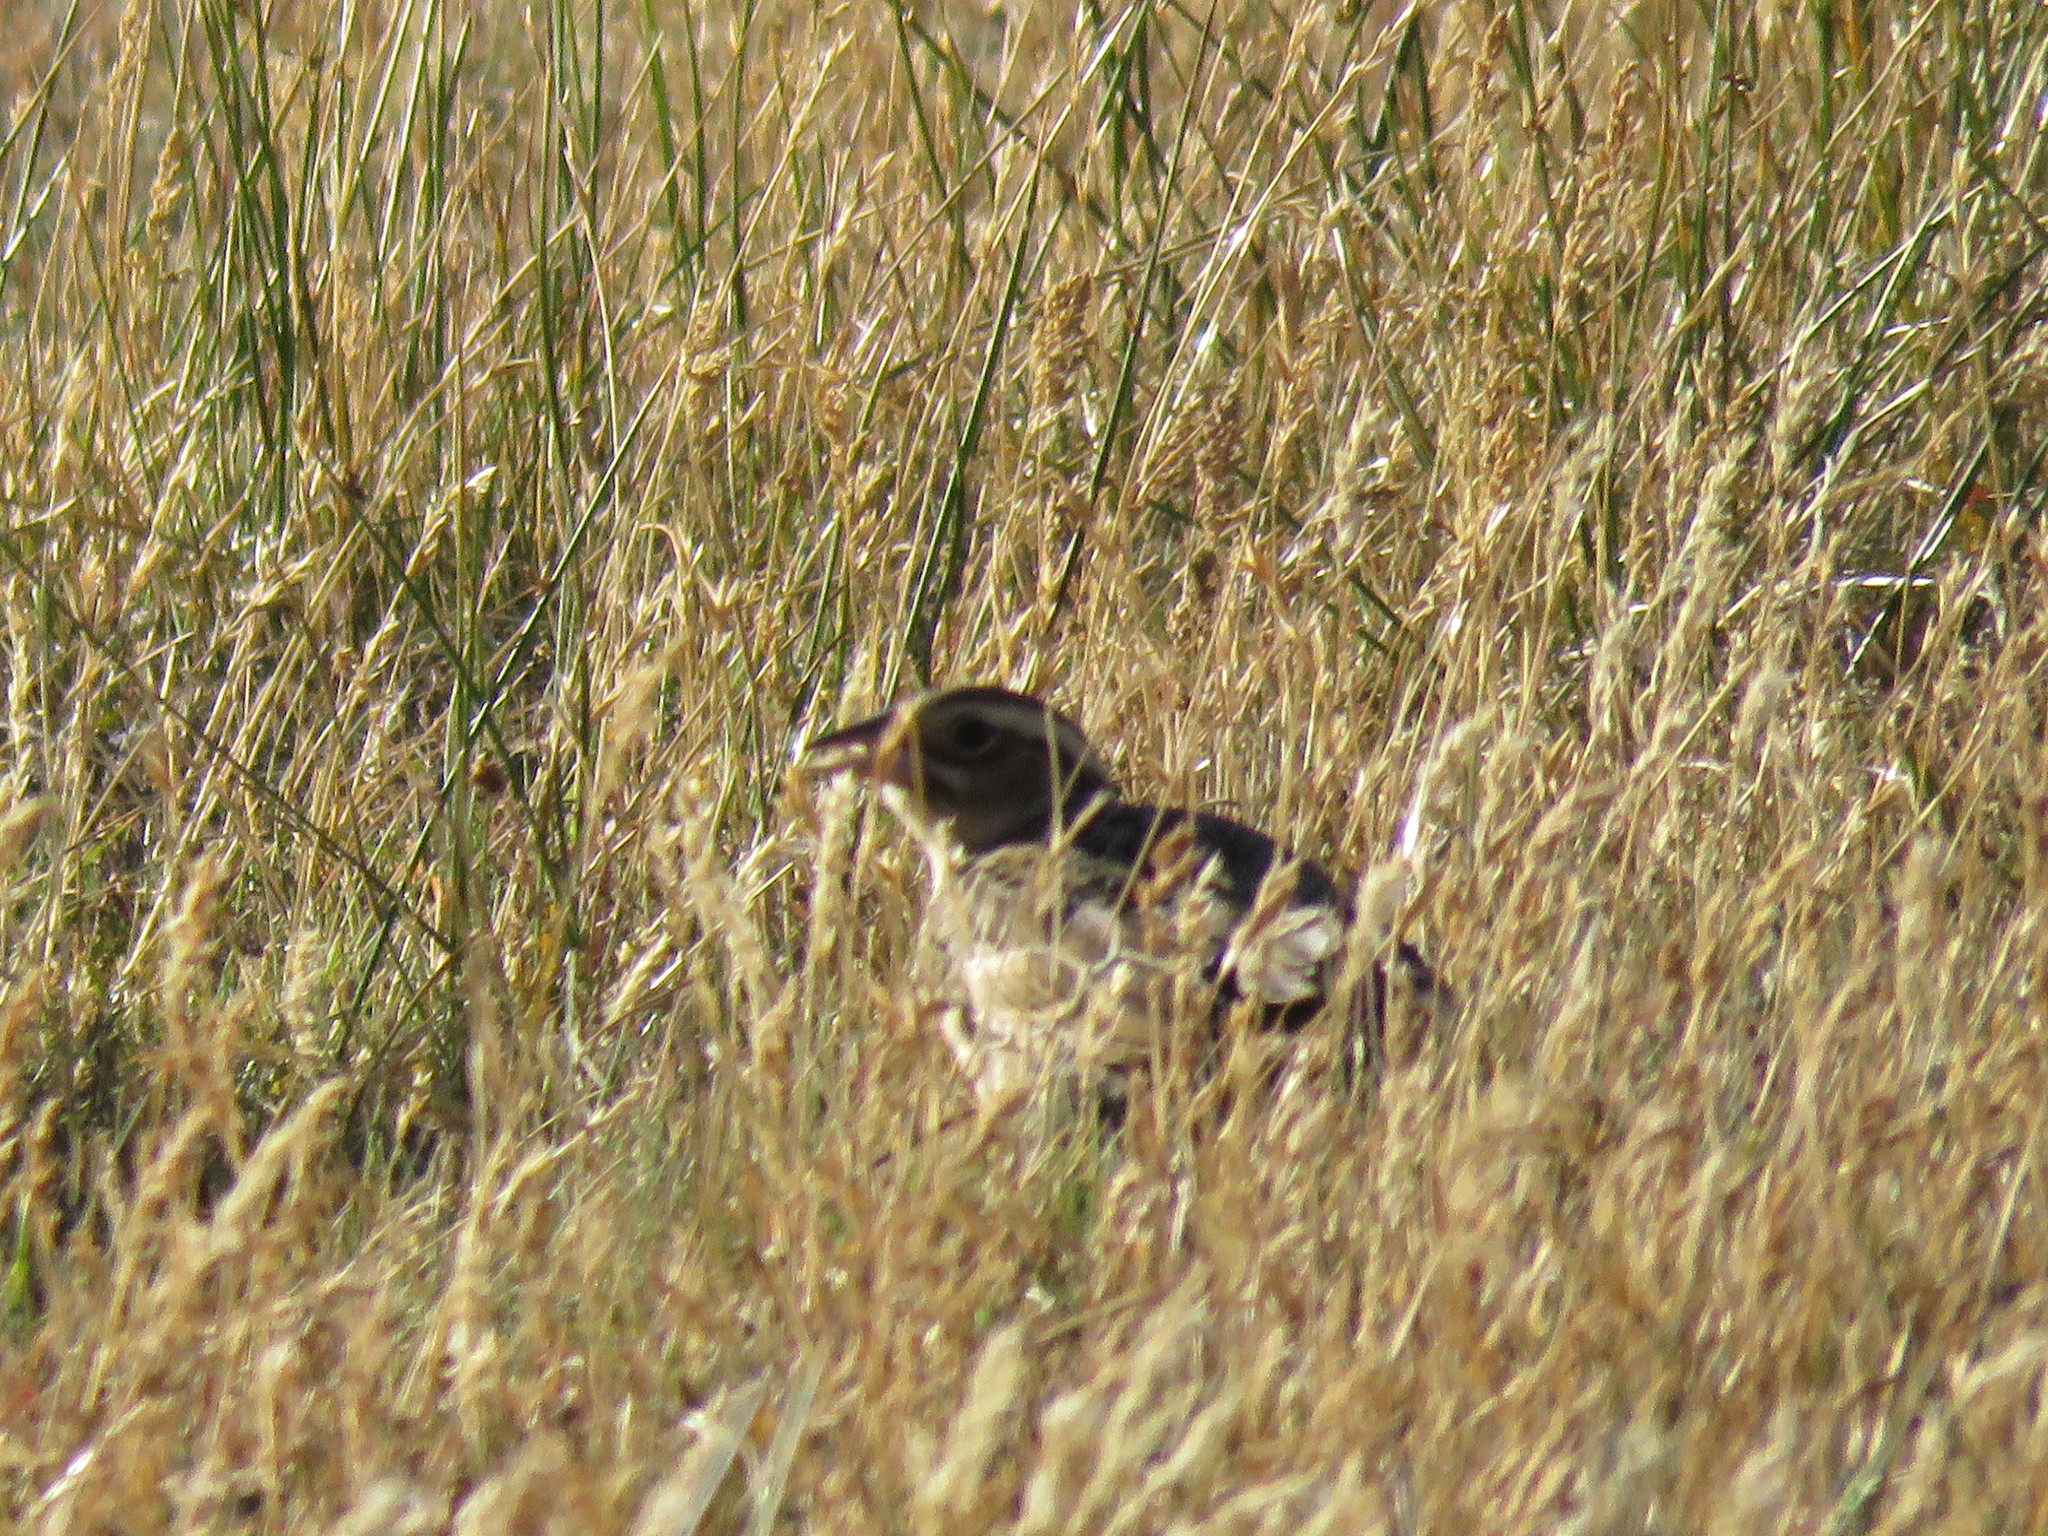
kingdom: Animalia
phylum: Chordata
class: Aves
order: Passeriformes
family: Icteridae
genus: Sturnella
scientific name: Sturnella loyca
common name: Long-tailed meadowlark
